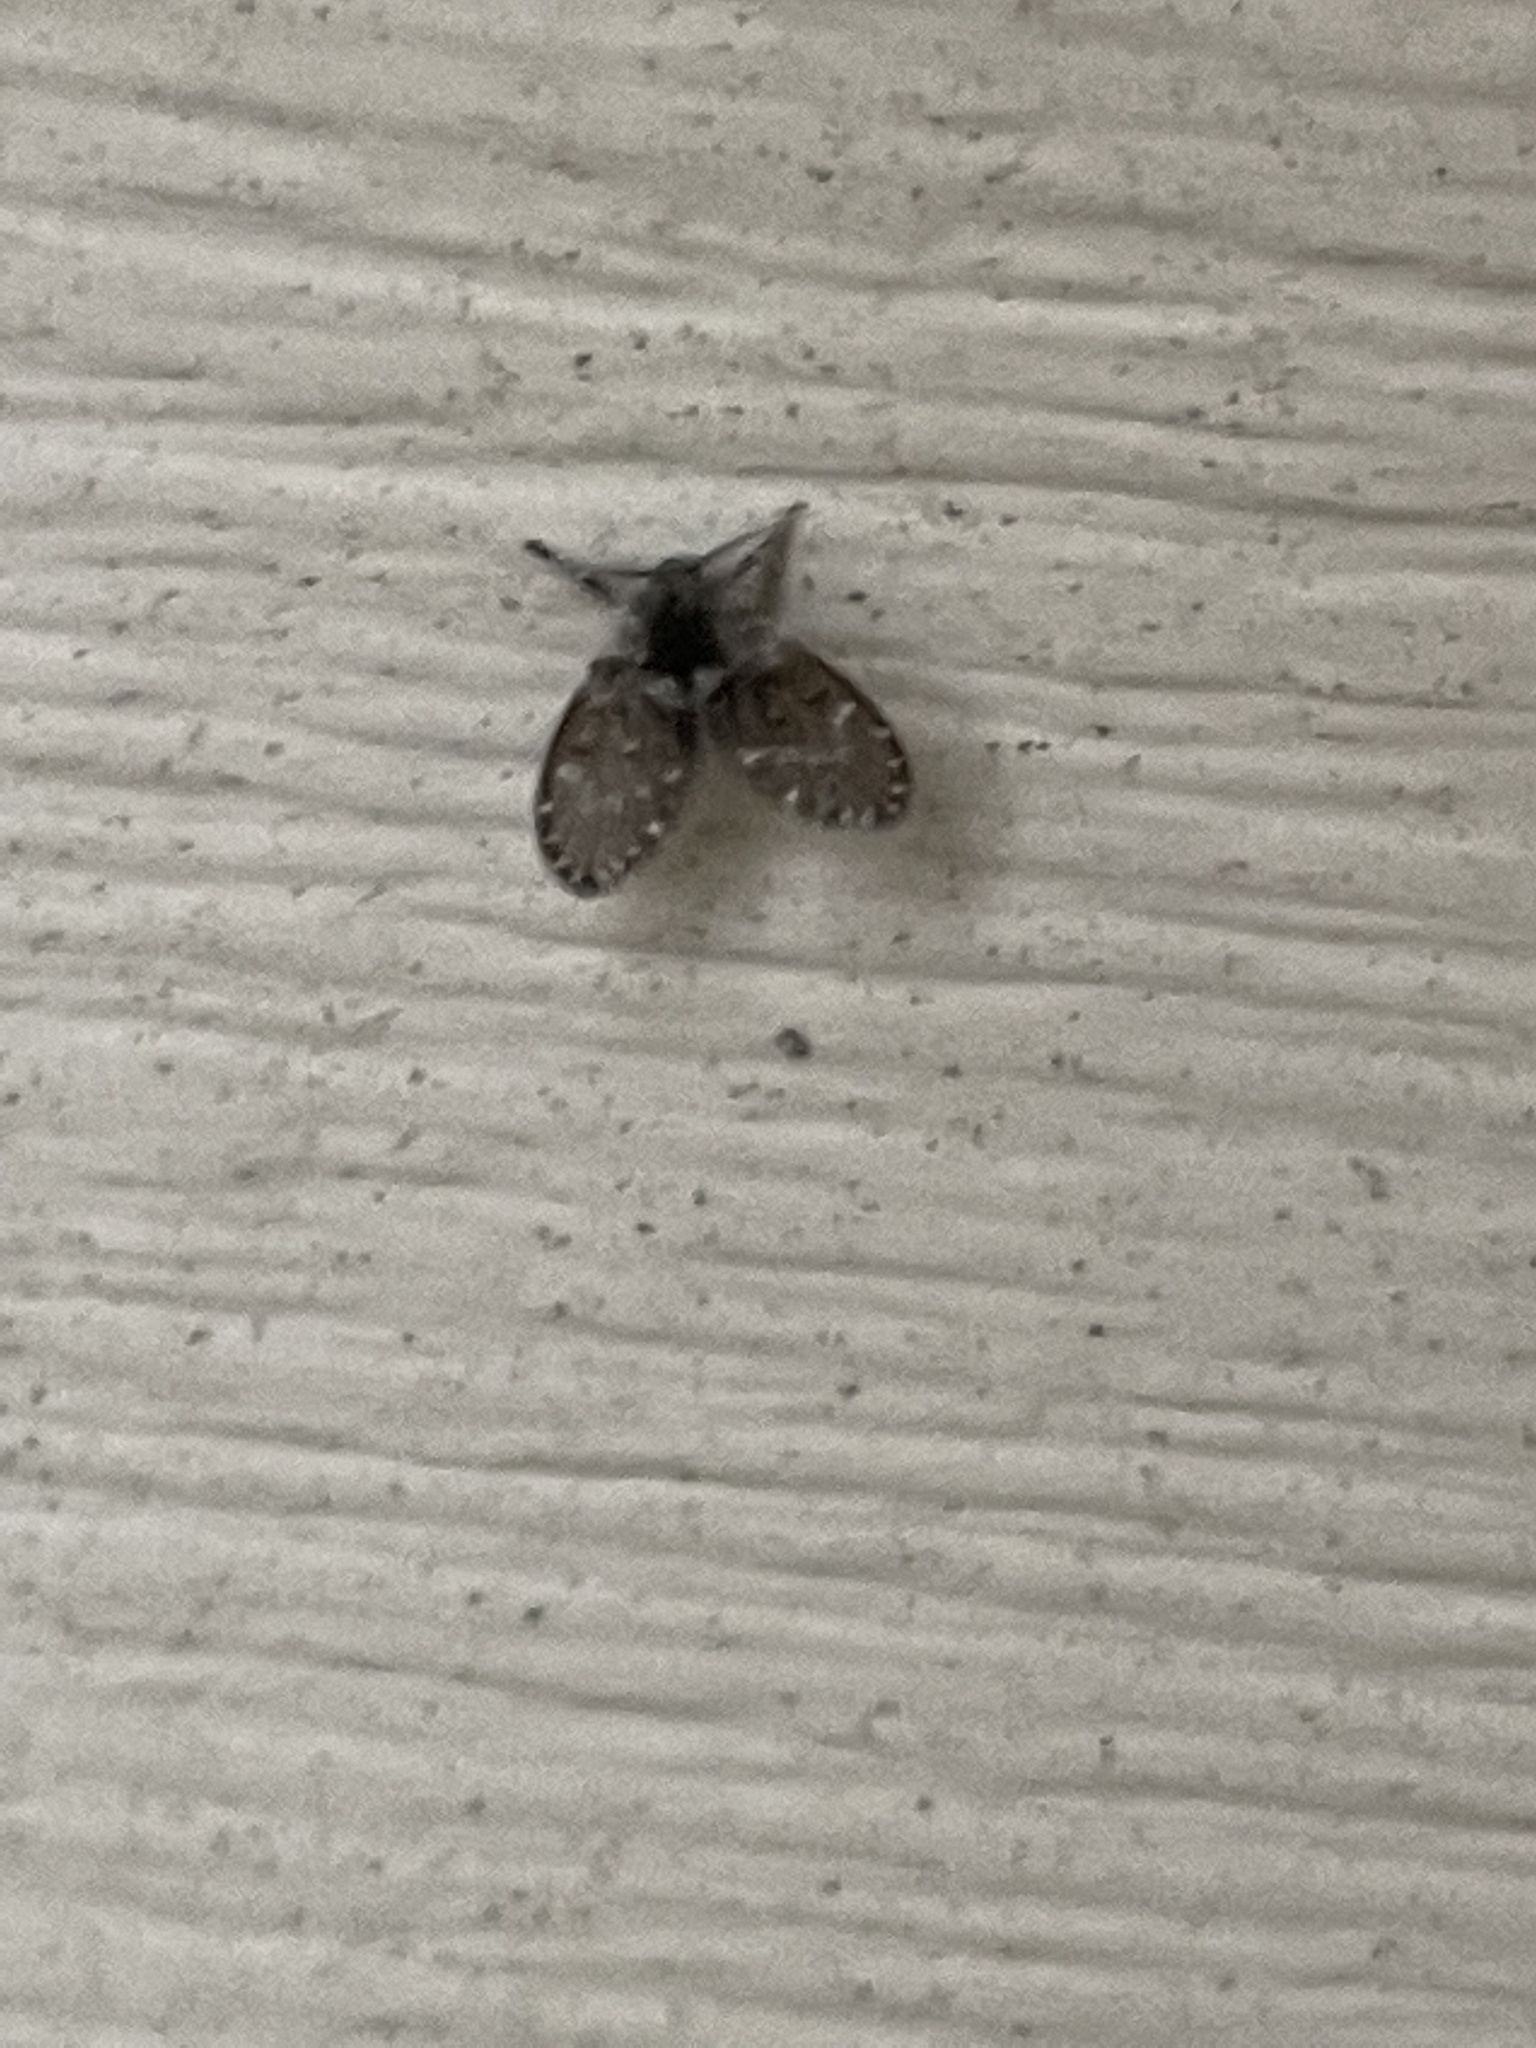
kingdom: Animalia
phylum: Arthropoda
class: Insecta
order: Diptera
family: Psychodidae
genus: Clogmia
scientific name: Clogmia albipunctatus
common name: White-spotted moth fly
